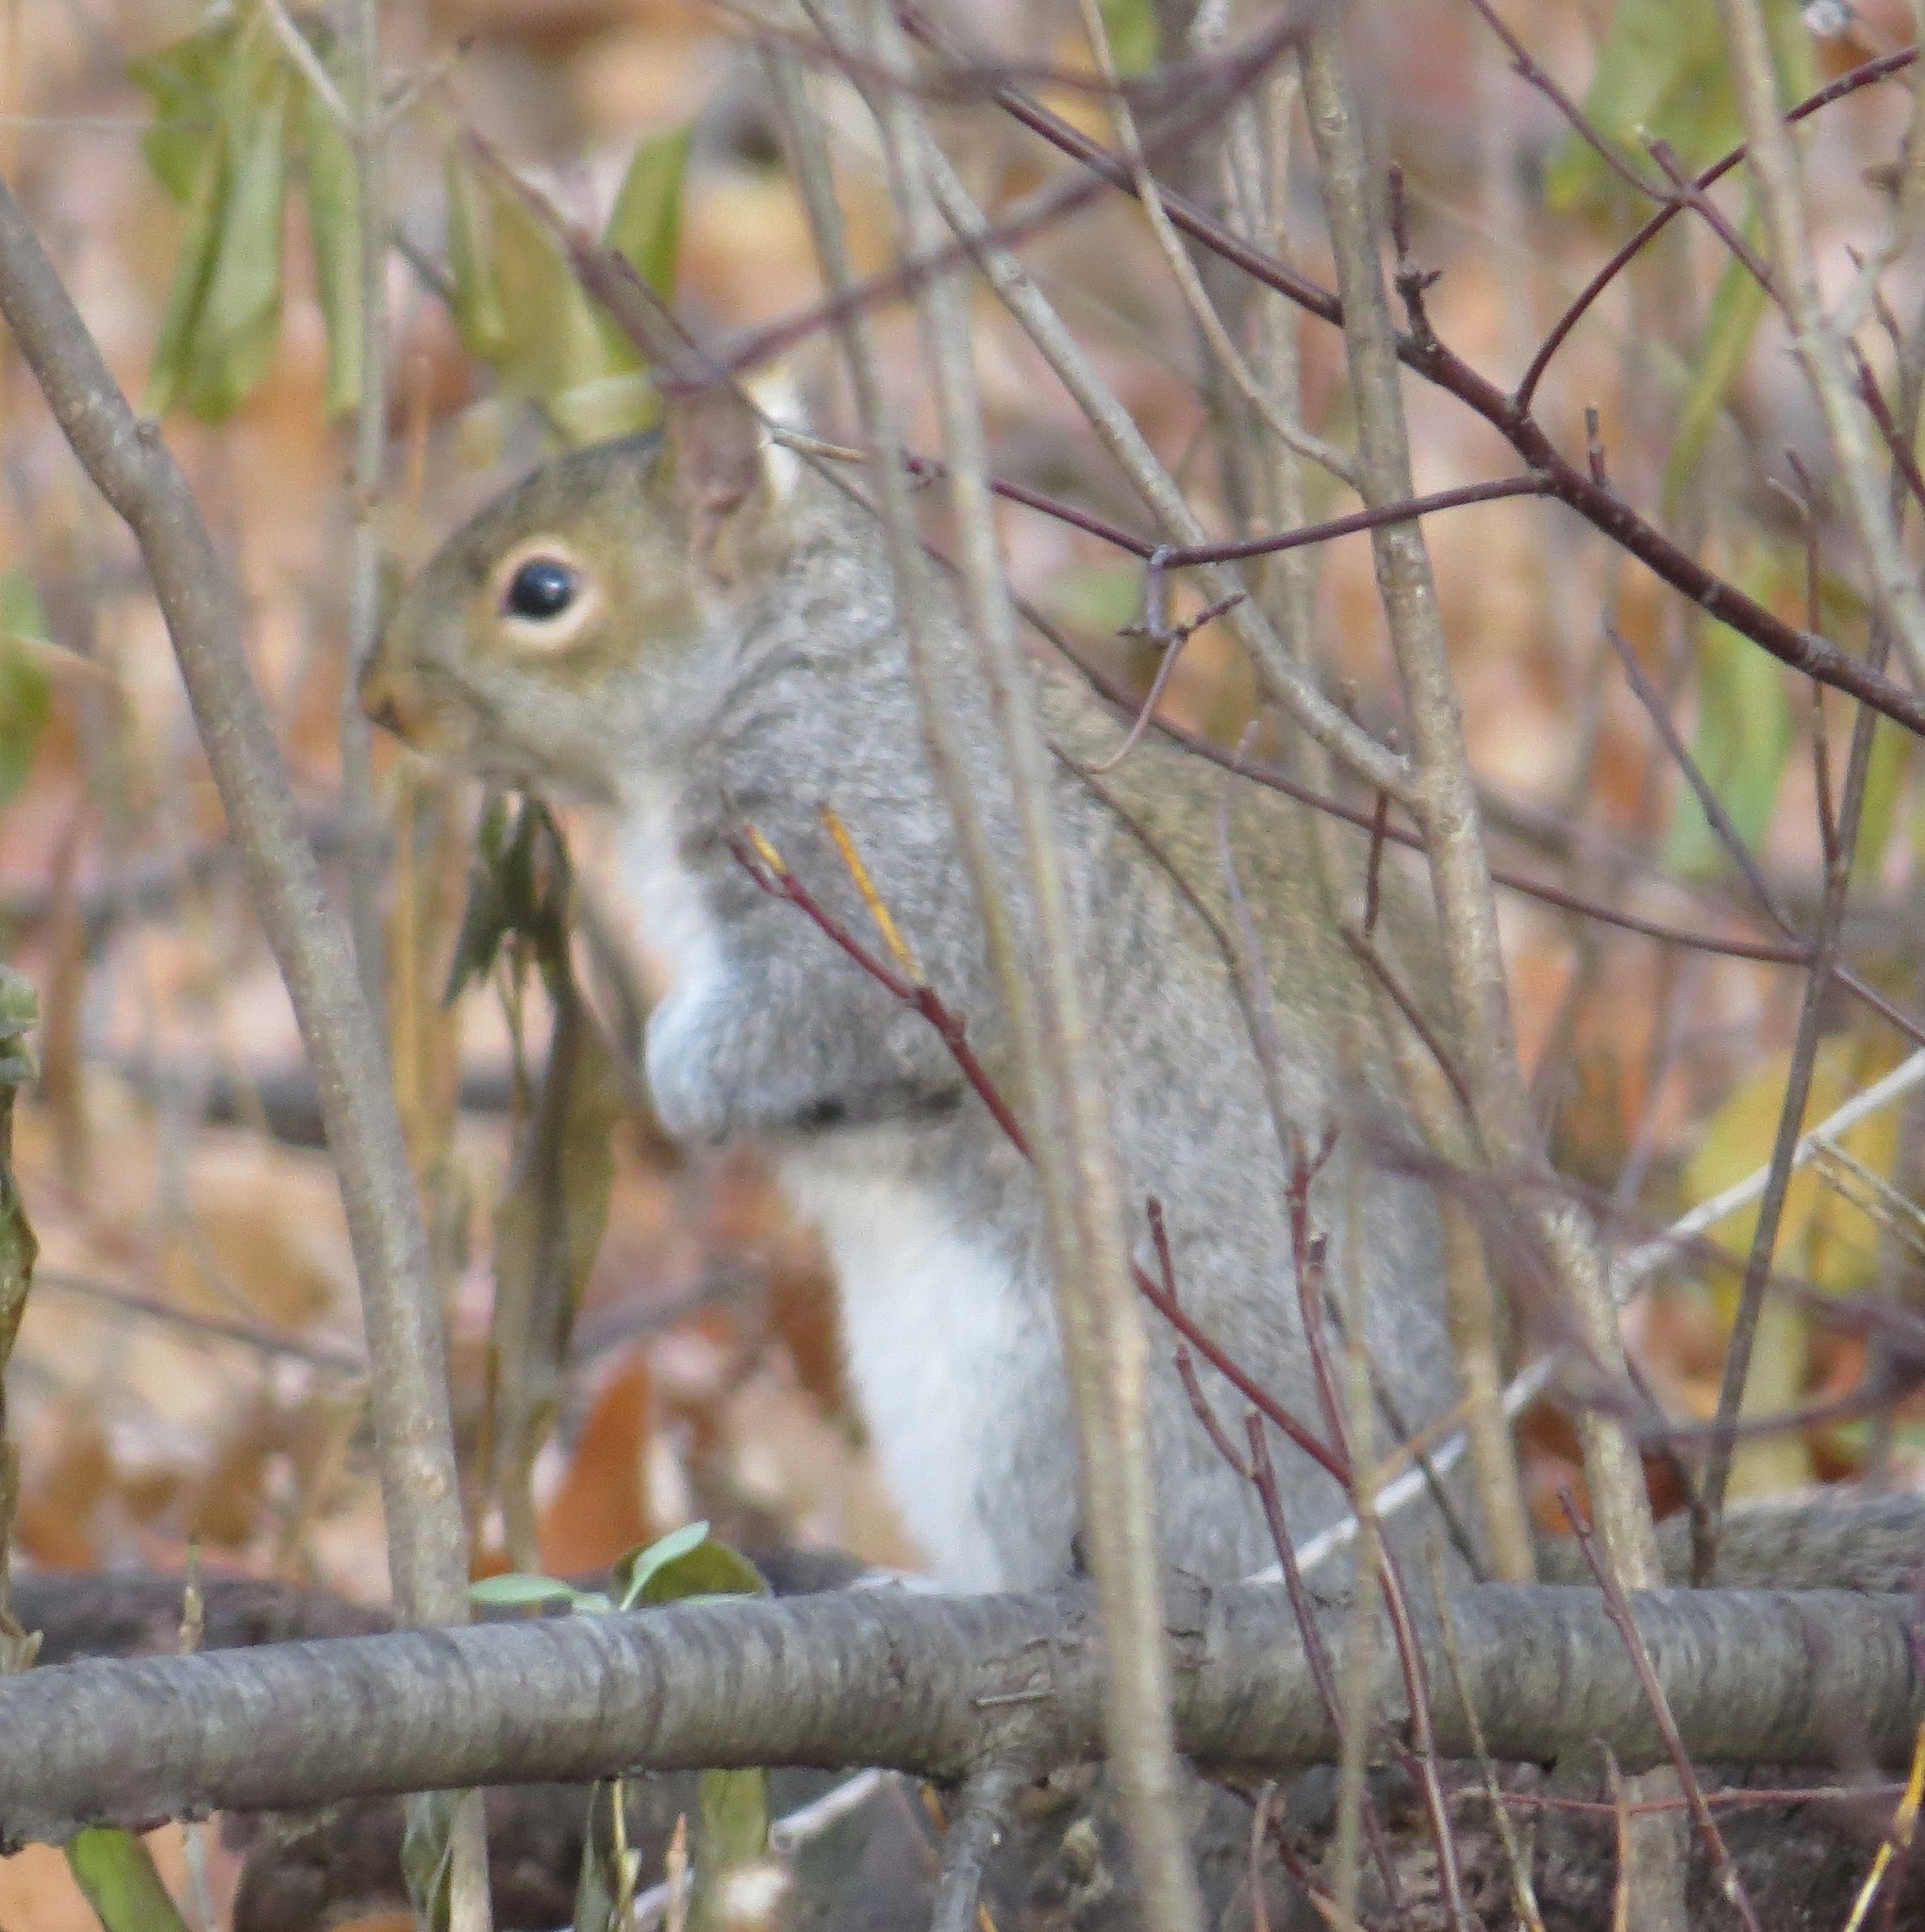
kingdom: Animalia
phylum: Chordata
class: Mammalia
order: Rodentia
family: Sciuridae
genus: Sciurus
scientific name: Sciurus carolinensis
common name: Eastern gray squirrel
